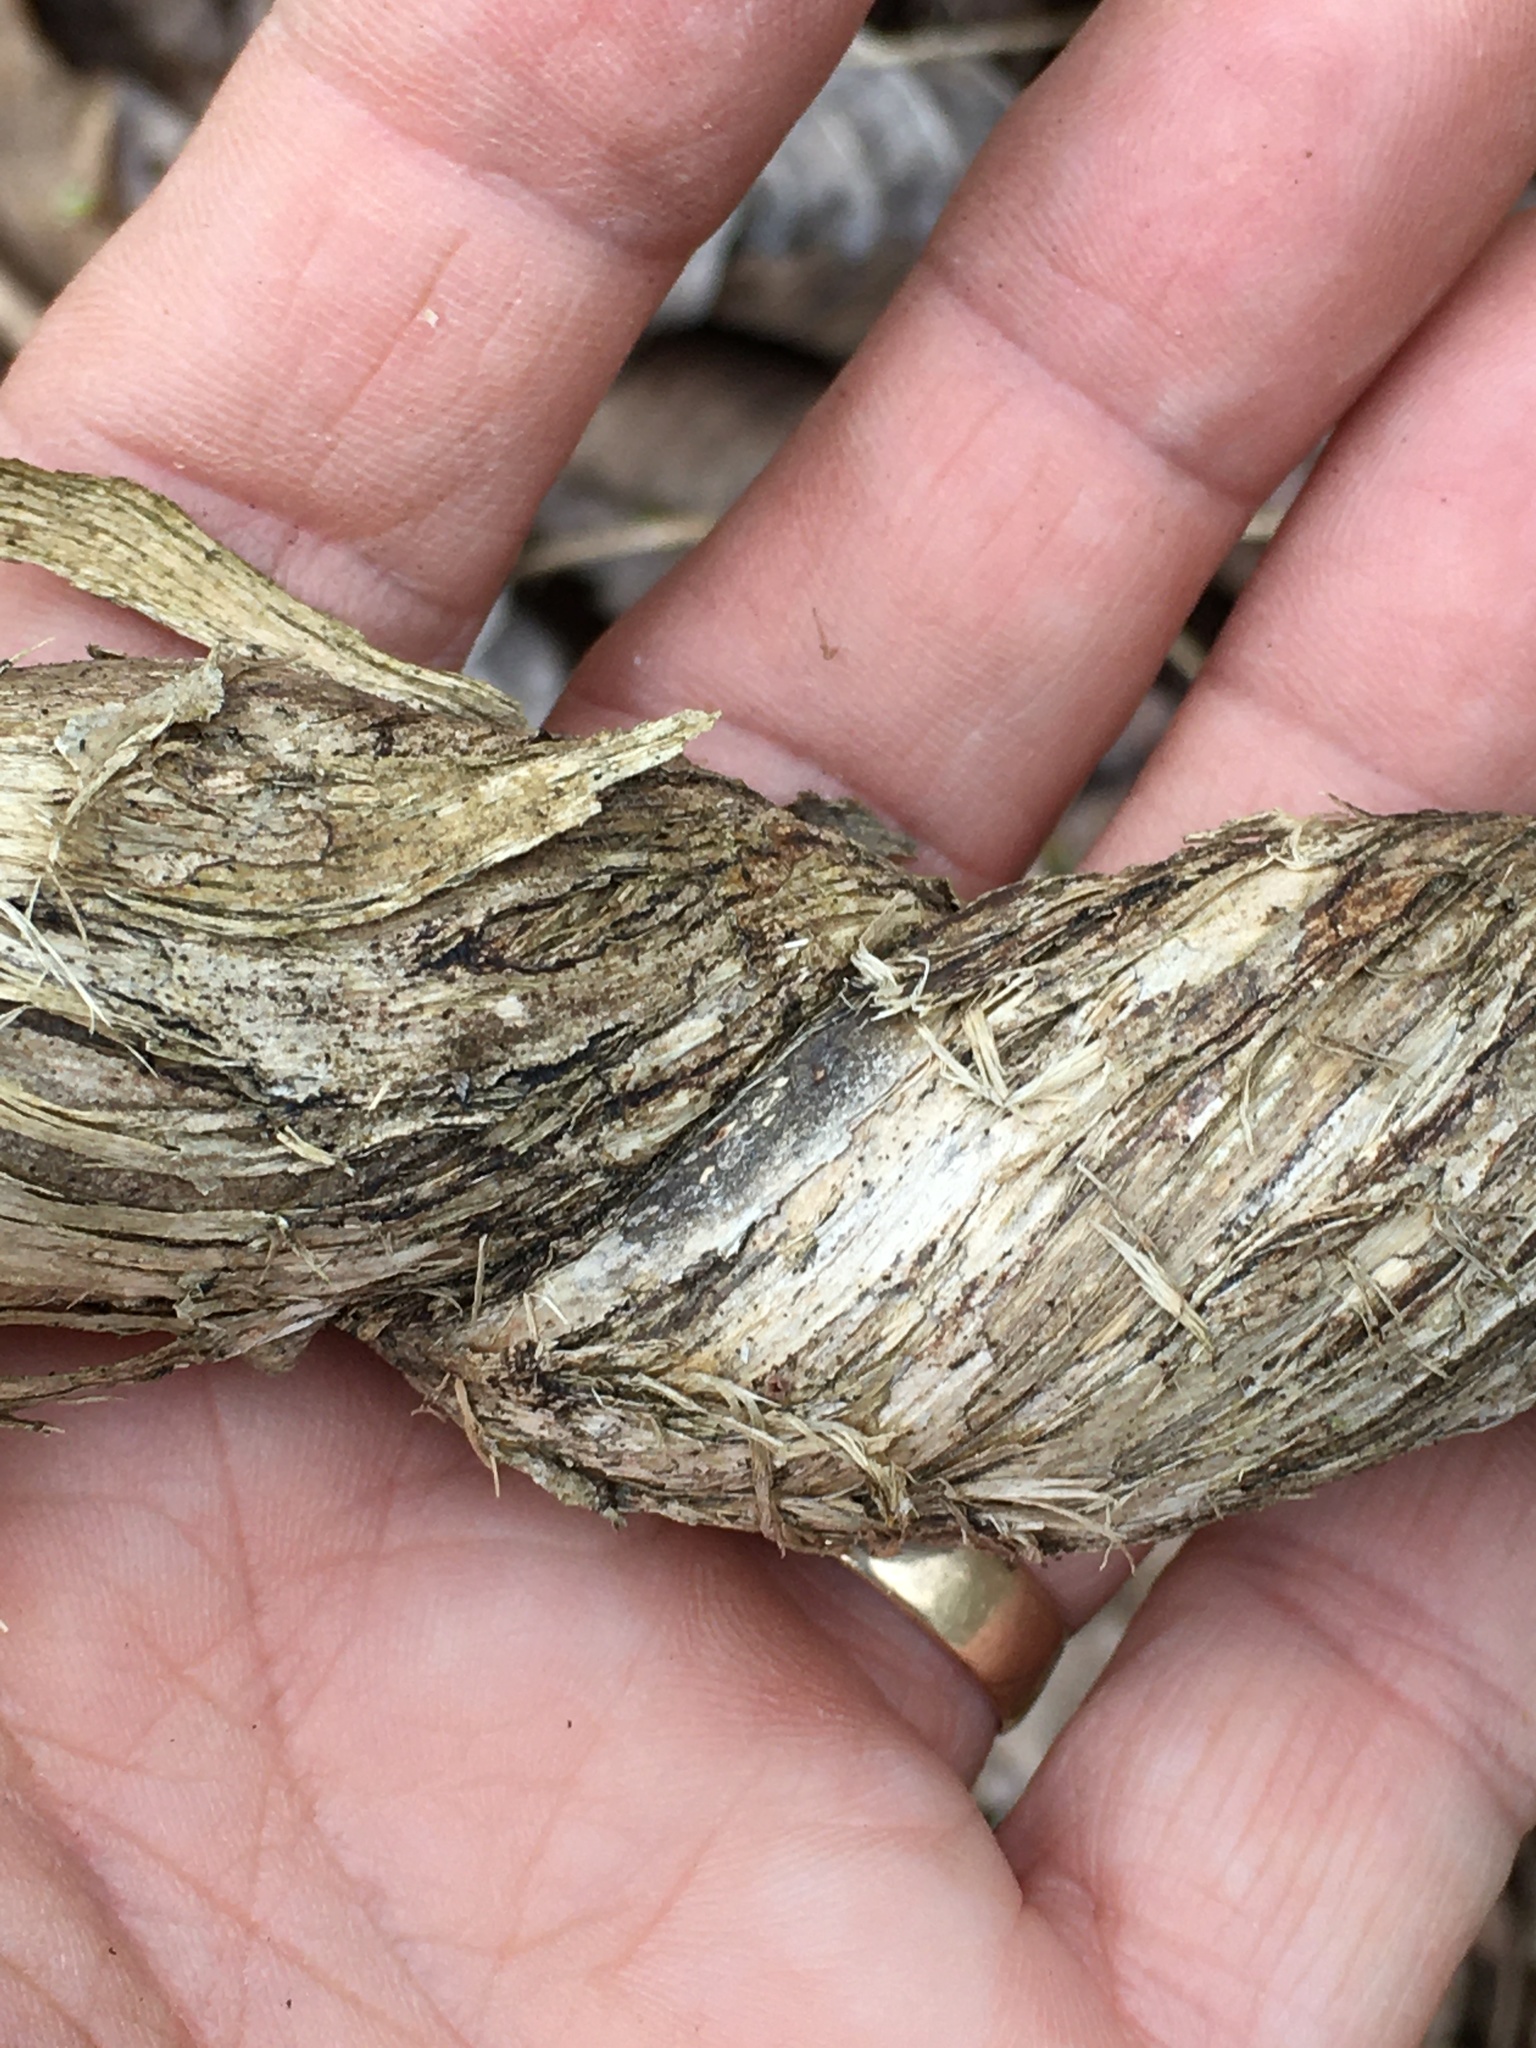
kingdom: Plantae
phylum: Tracheophyta
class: Magnoliopsida
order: Dipsacales
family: Caprifoliaceae
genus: Lonicera
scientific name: Lonicera japonica
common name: Japanese honeysuckle
